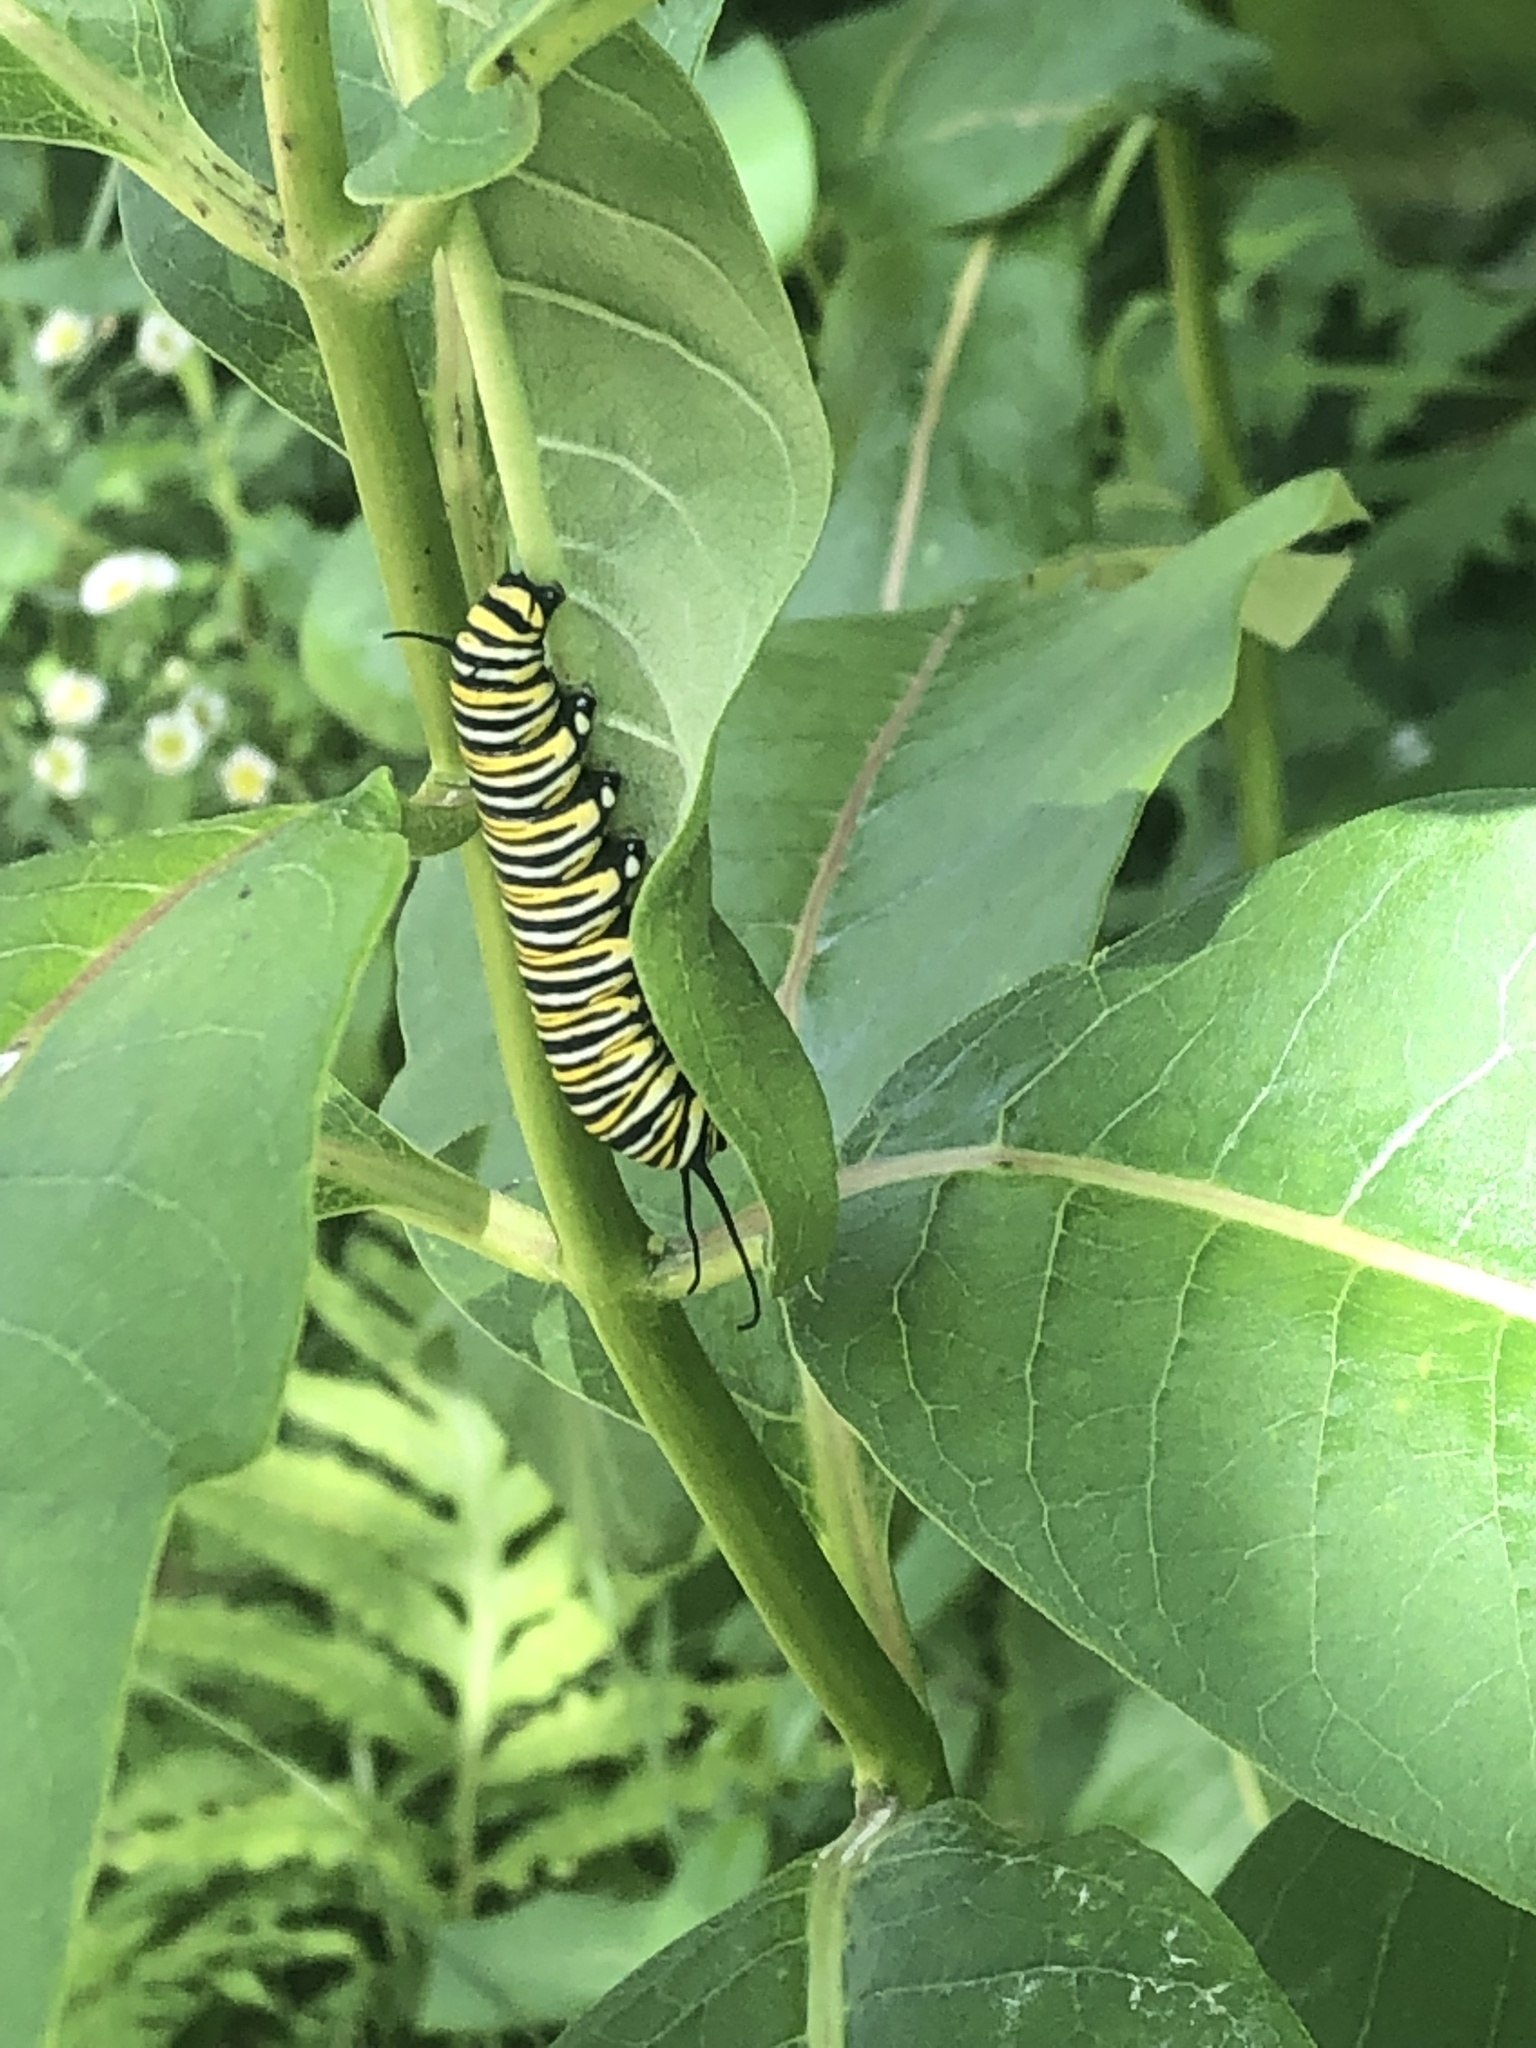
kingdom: Animalia
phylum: Arthropoda
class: Insecta
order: Lepidoptera
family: Nymphalidae
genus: Danaus
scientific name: Danaus plexippus
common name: Monarch
